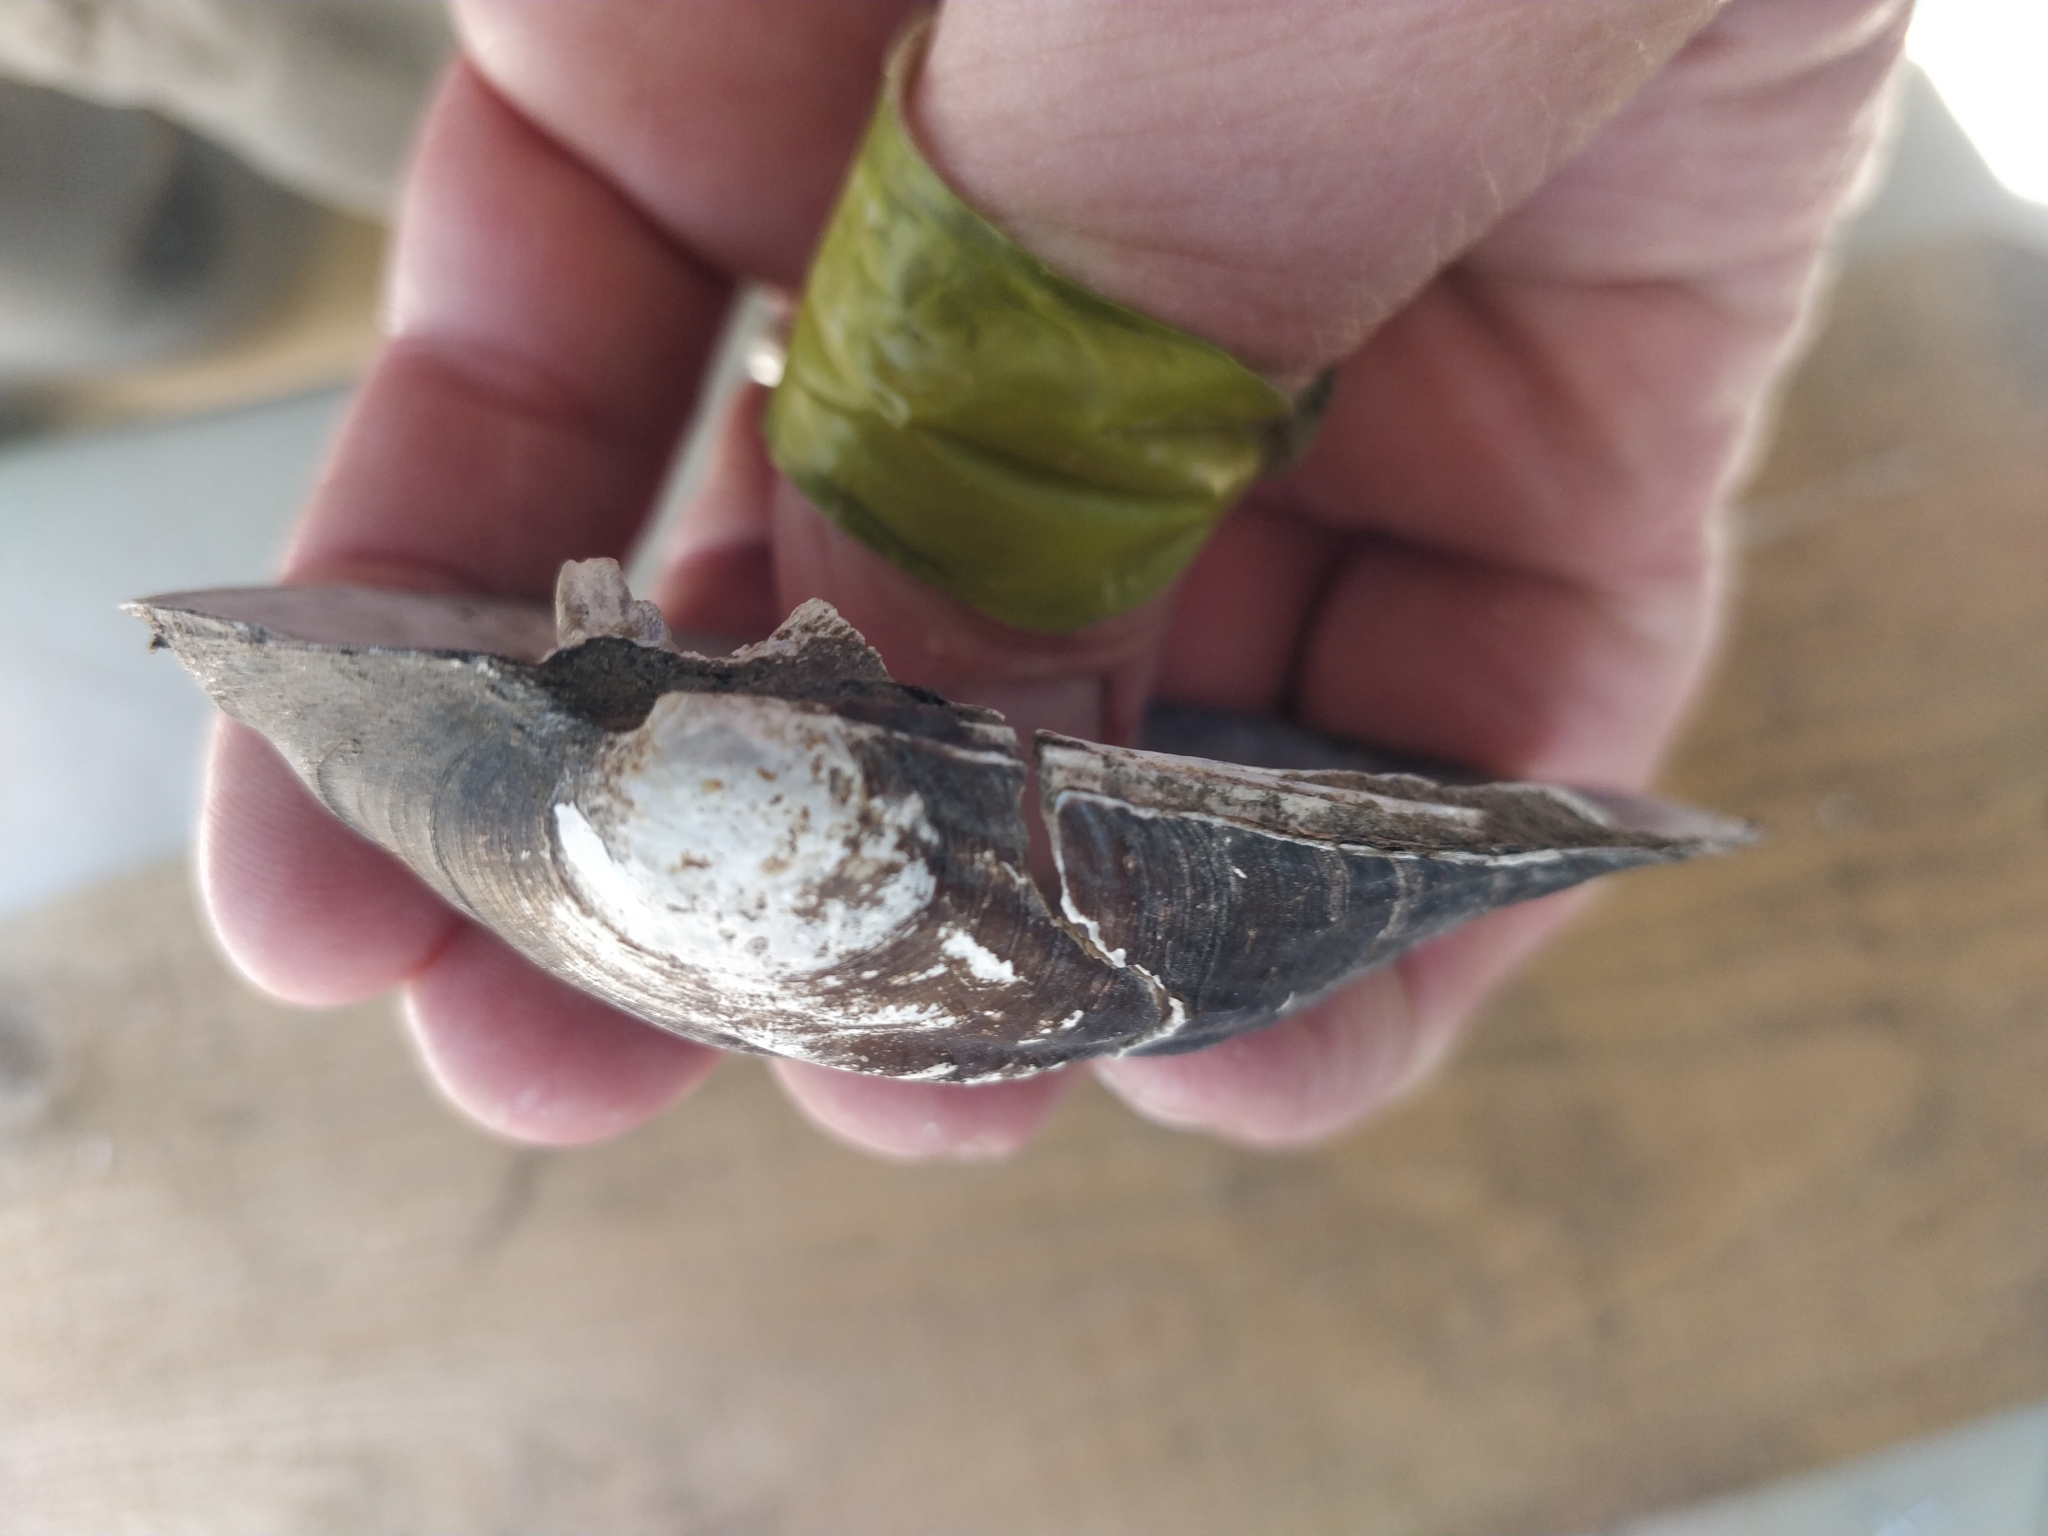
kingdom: Animalia
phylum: Mollusca
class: Bivalvia
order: Unionida
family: Unionidae
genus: Amblema
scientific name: Amblema plicata
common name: Threeridge
